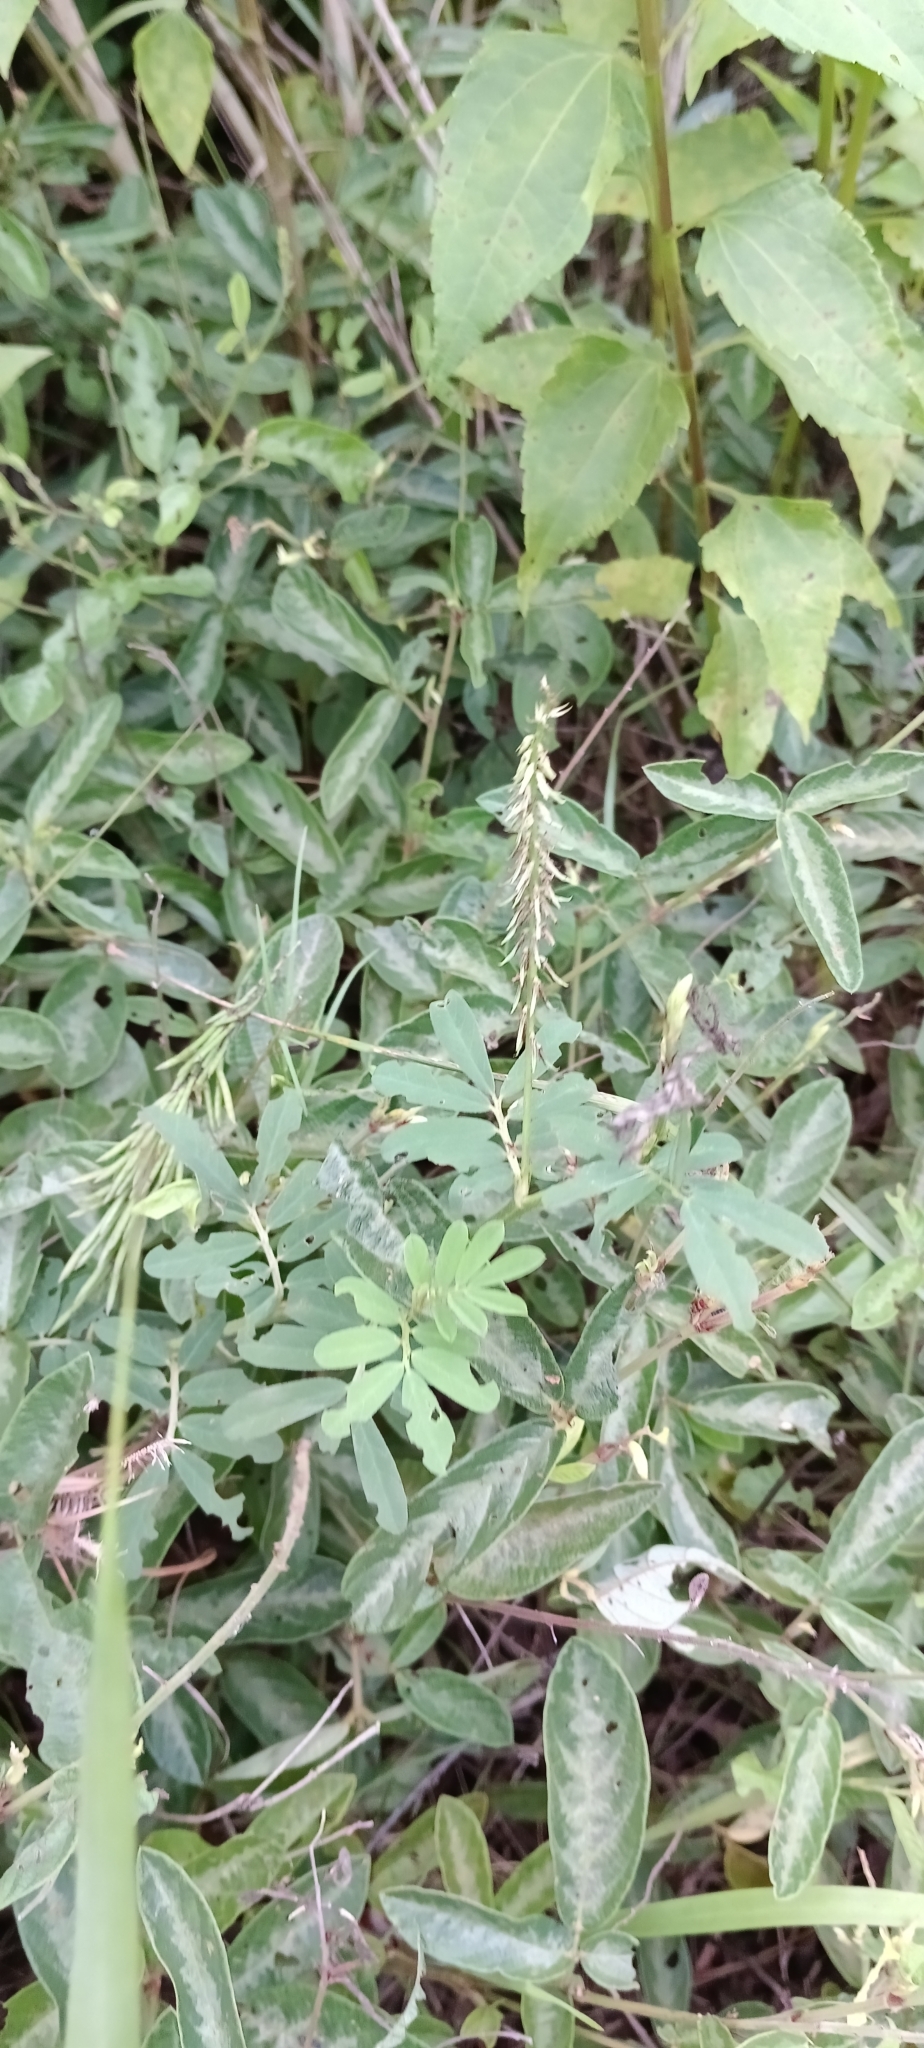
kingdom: Plantae
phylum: Tracheophyta
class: Magnoliopsida
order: Fabales
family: Fabaceae
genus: Desmodium
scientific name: Desmodium incanum
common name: Tickclover
